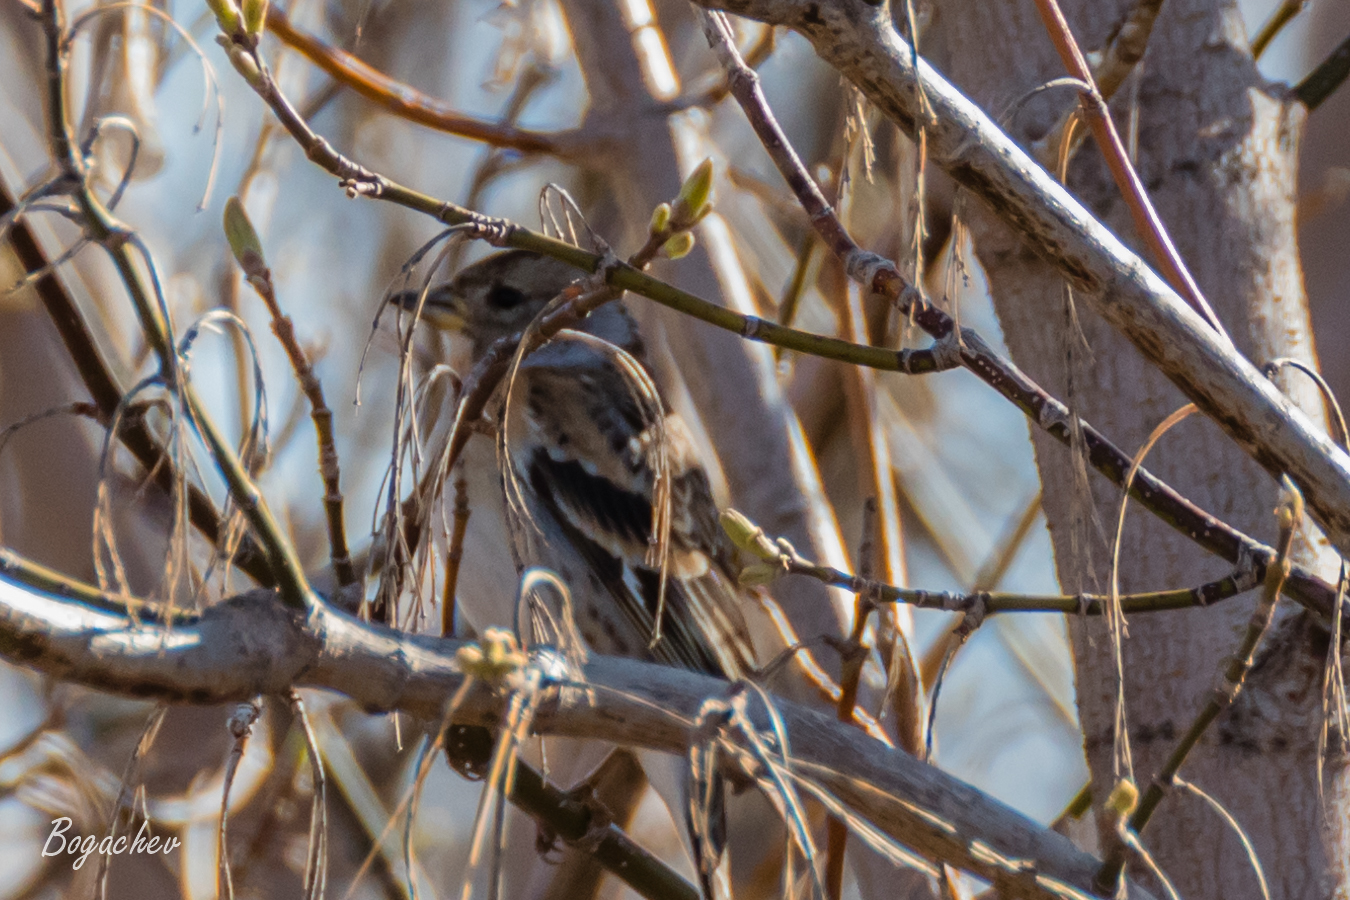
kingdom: Animalia
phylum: Chordata
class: Aves
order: Passeriformes
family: Fringillidae
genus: Fringilla
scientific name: Fringilla montifringilla
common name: Brambling
